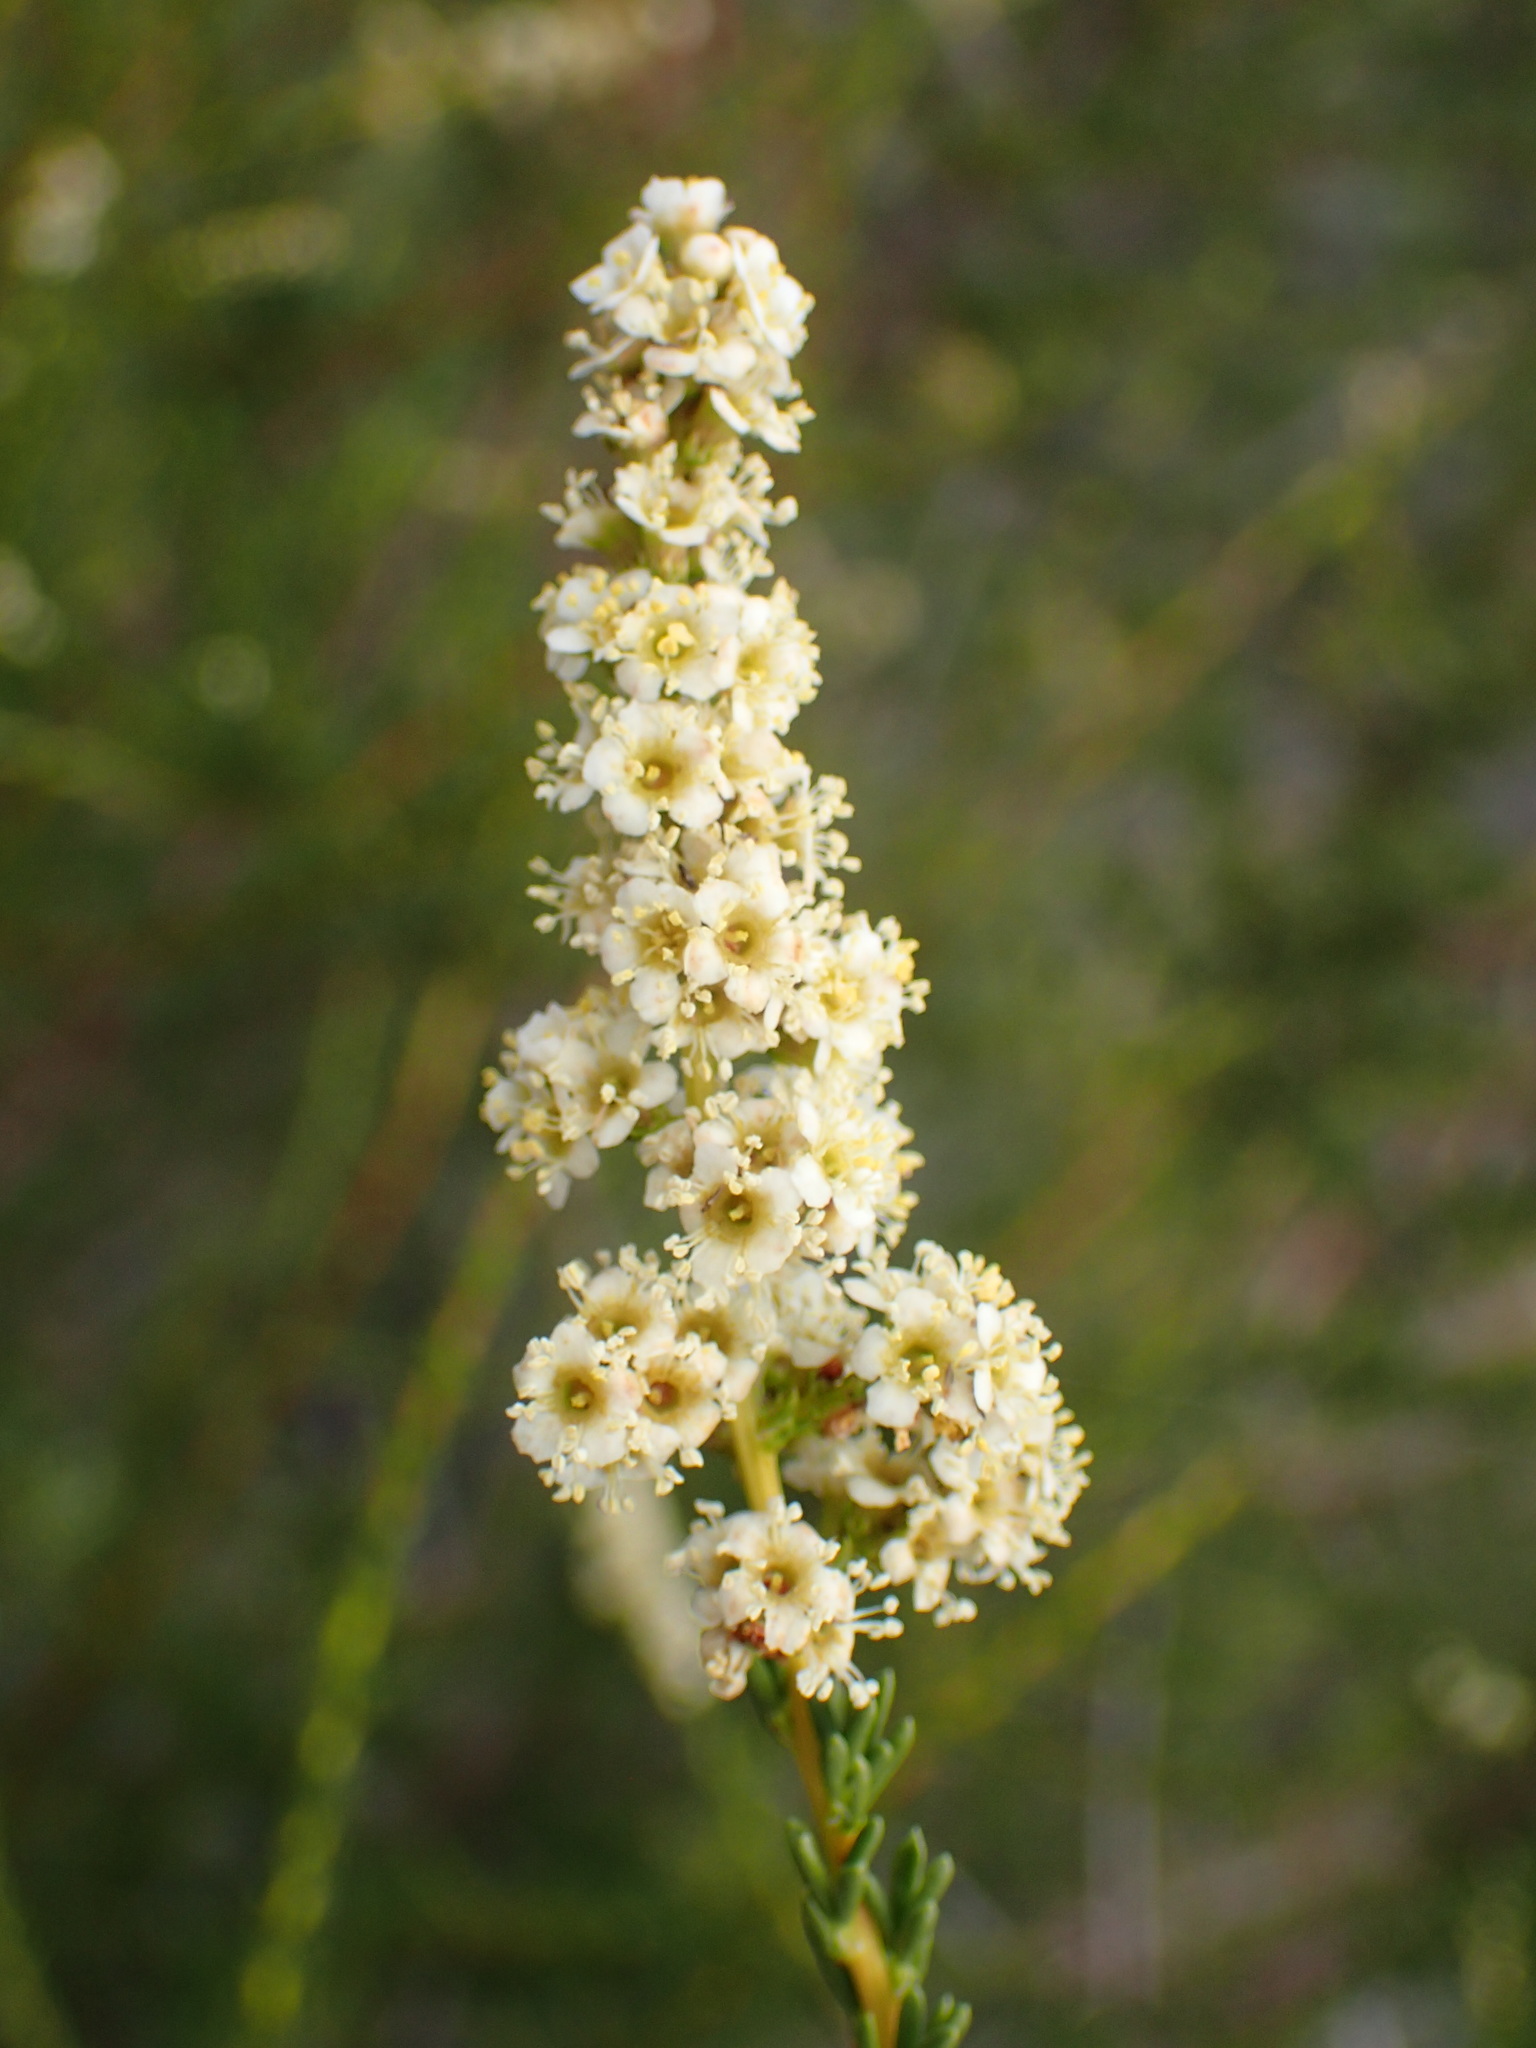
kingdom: Plantae
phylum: Tracheophyta
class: Magnoliopsida
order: Rosales
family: Rosaceae
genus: Adenostoma
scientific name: Adenostoma fasciculatum
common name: Chamise
